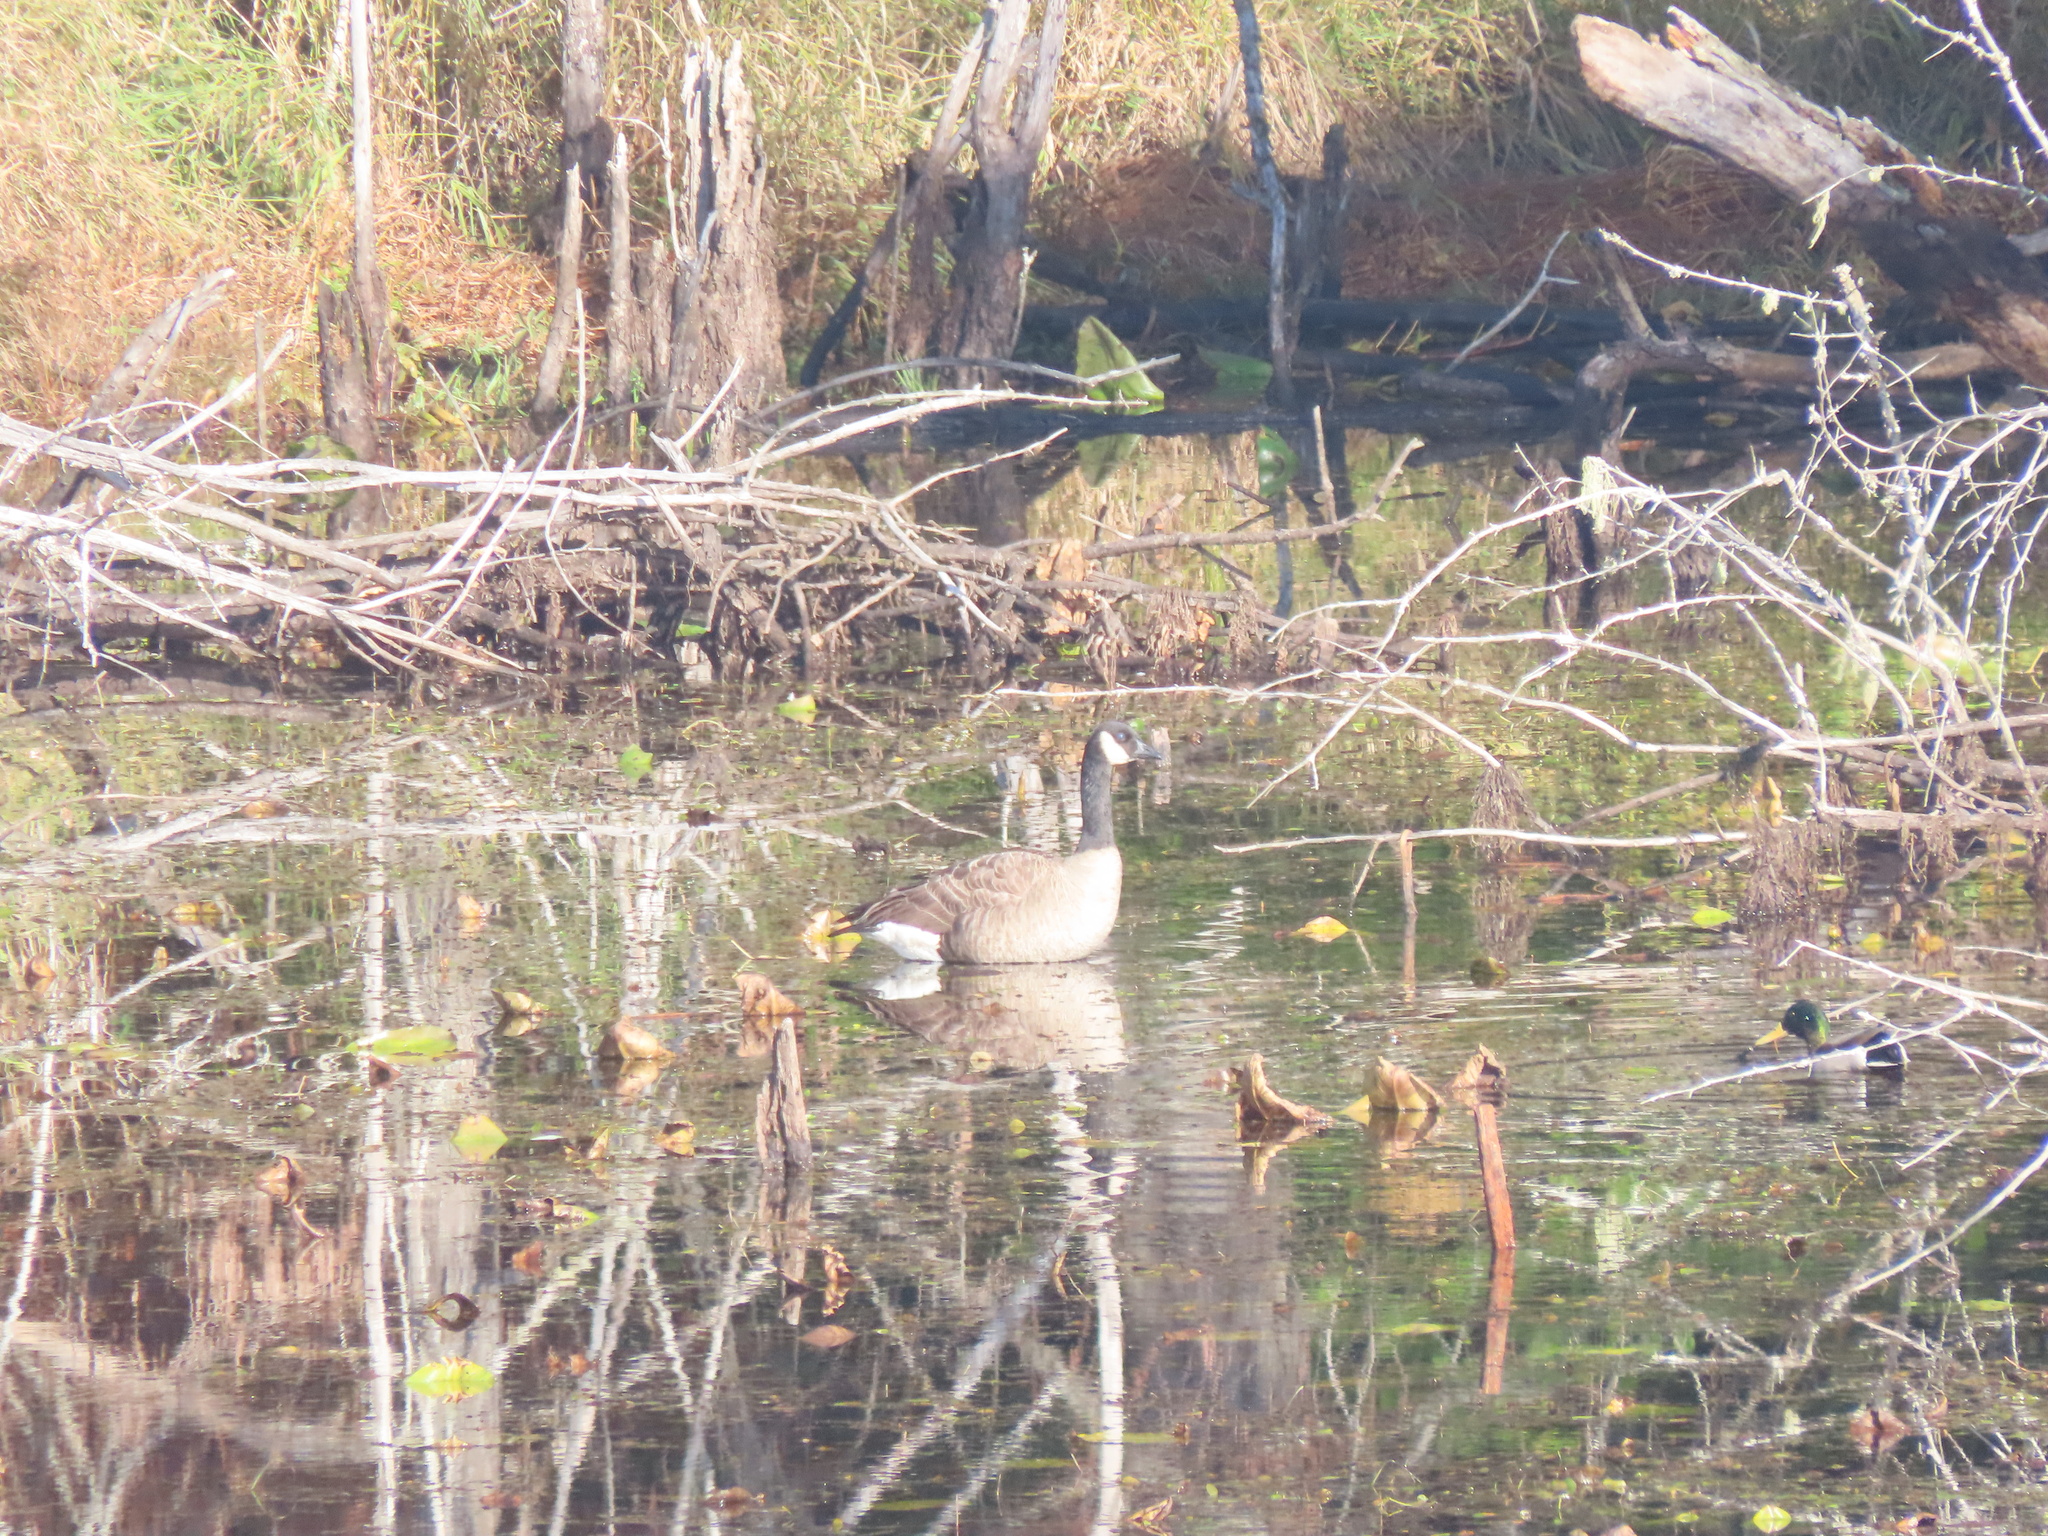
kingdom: Animalia
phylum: Chordata
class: Aves
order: Anseriformes
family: Anatidae
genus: Branta
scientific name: Branta canadensis
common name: Canada goose
